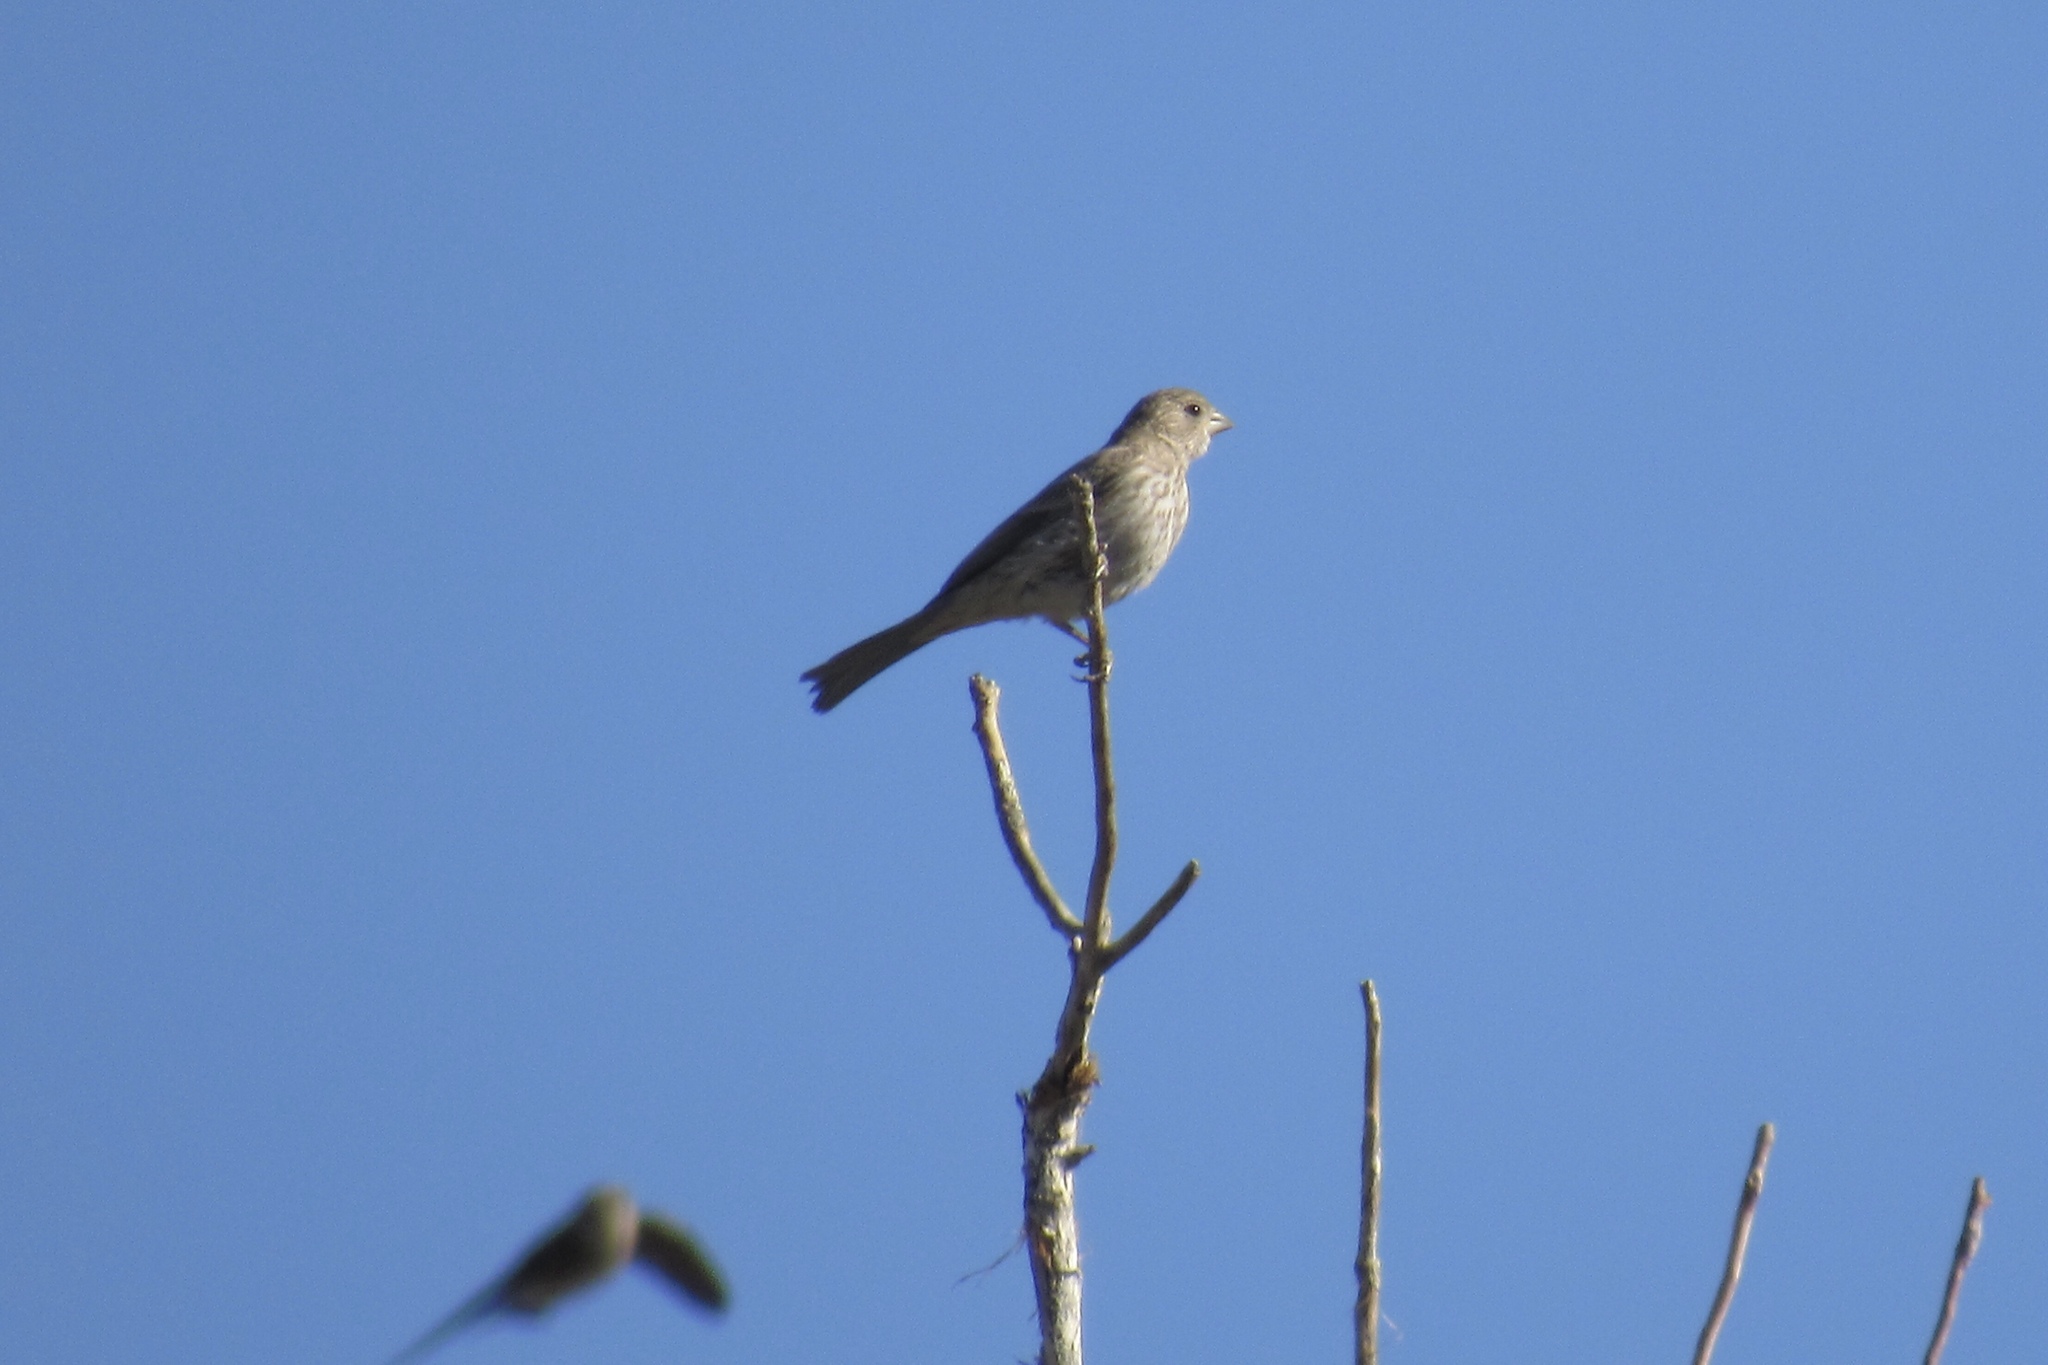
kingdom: Animalia
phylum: Chordata
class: Aves
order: Passeriformes
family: Fringillidae
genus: Haemorhous
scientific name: Haemorhous mexicanus
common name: House finch
